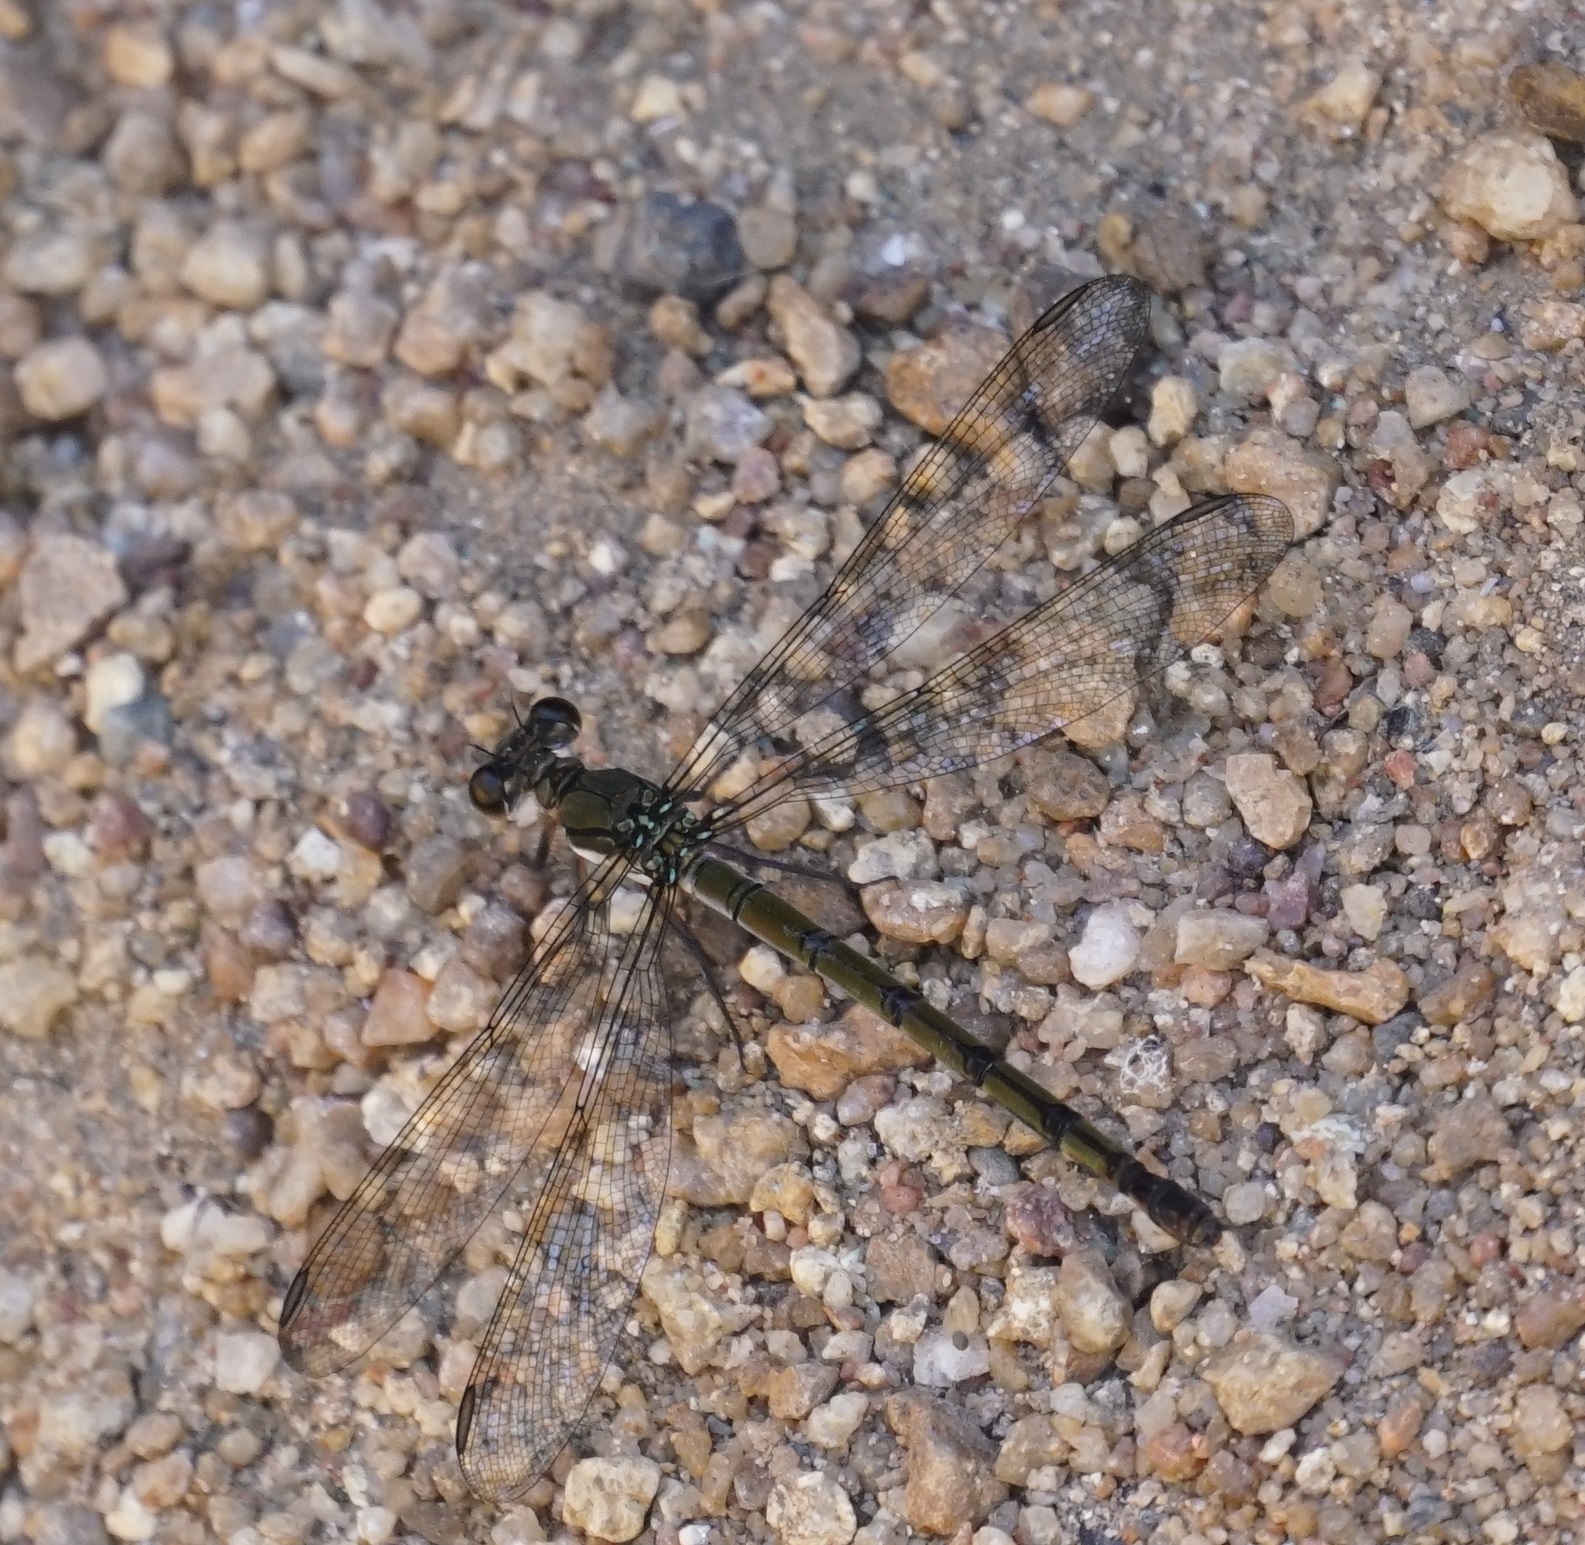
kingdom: Animalia
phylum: Arthropoda
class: Insecta
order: Odonata
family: Lestoideidae
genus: Diphlebia
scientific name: Diphlebia euphoeoides
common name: Tropical rockmaster
